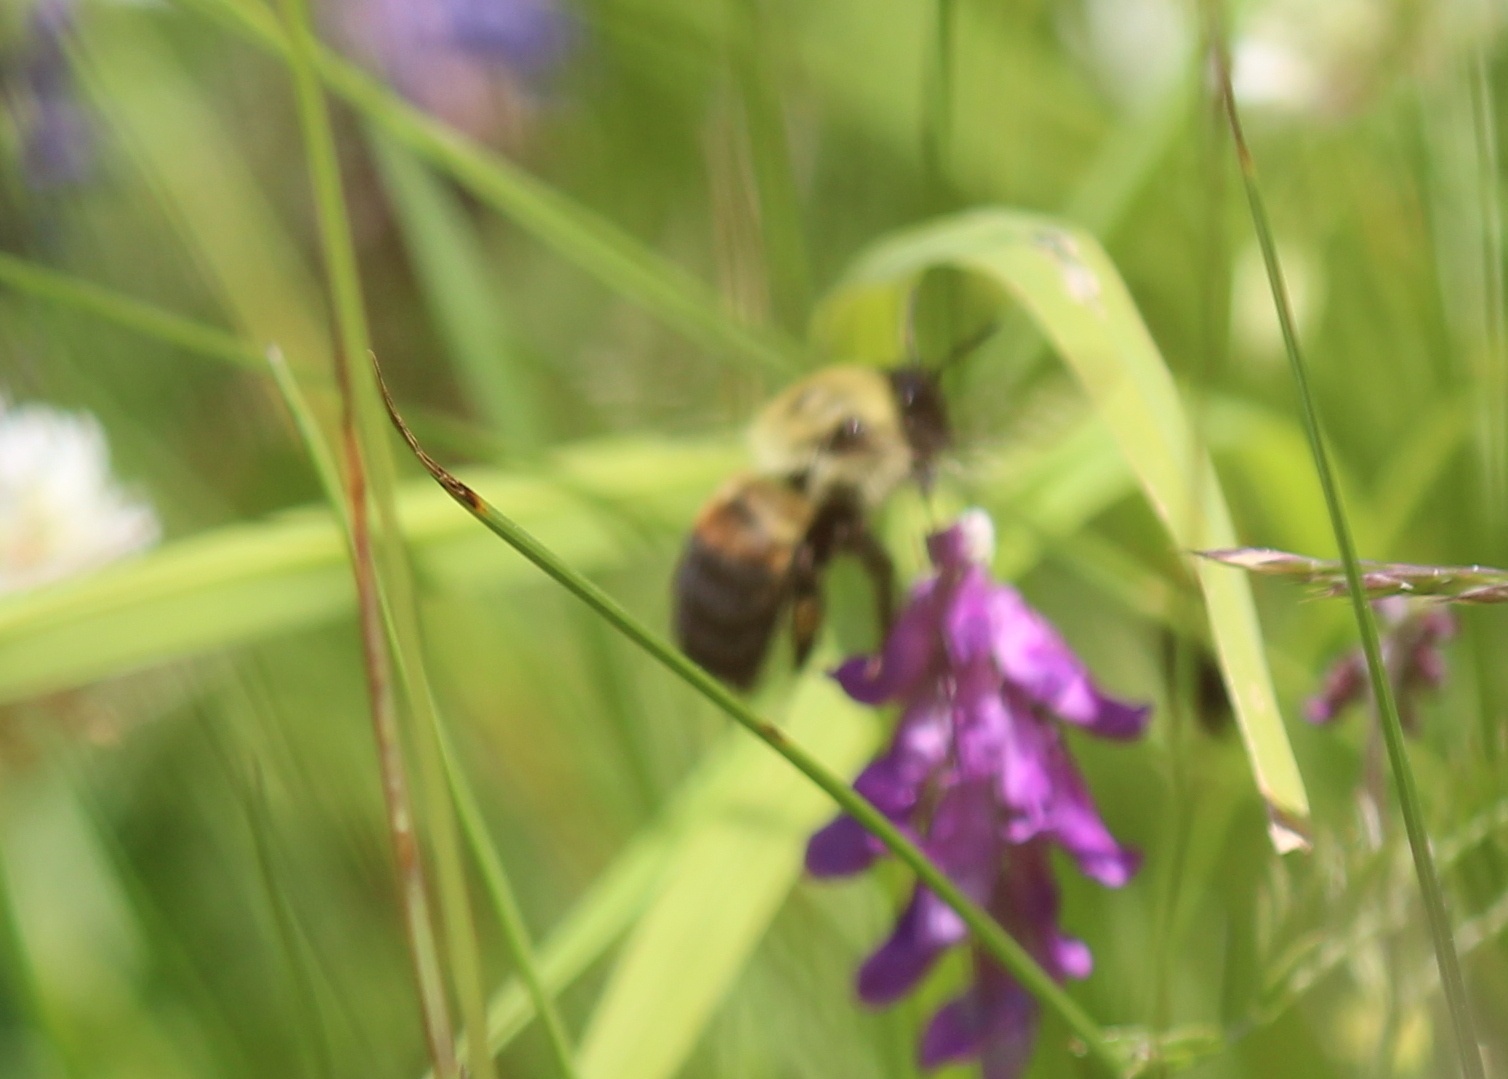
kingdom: Animalia
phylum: Arthropoda
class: Insecta
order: Hymenoptera
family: Apidae
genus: Bombus
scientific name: Bombus griseocollis
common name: Brown-belted bumble bee
